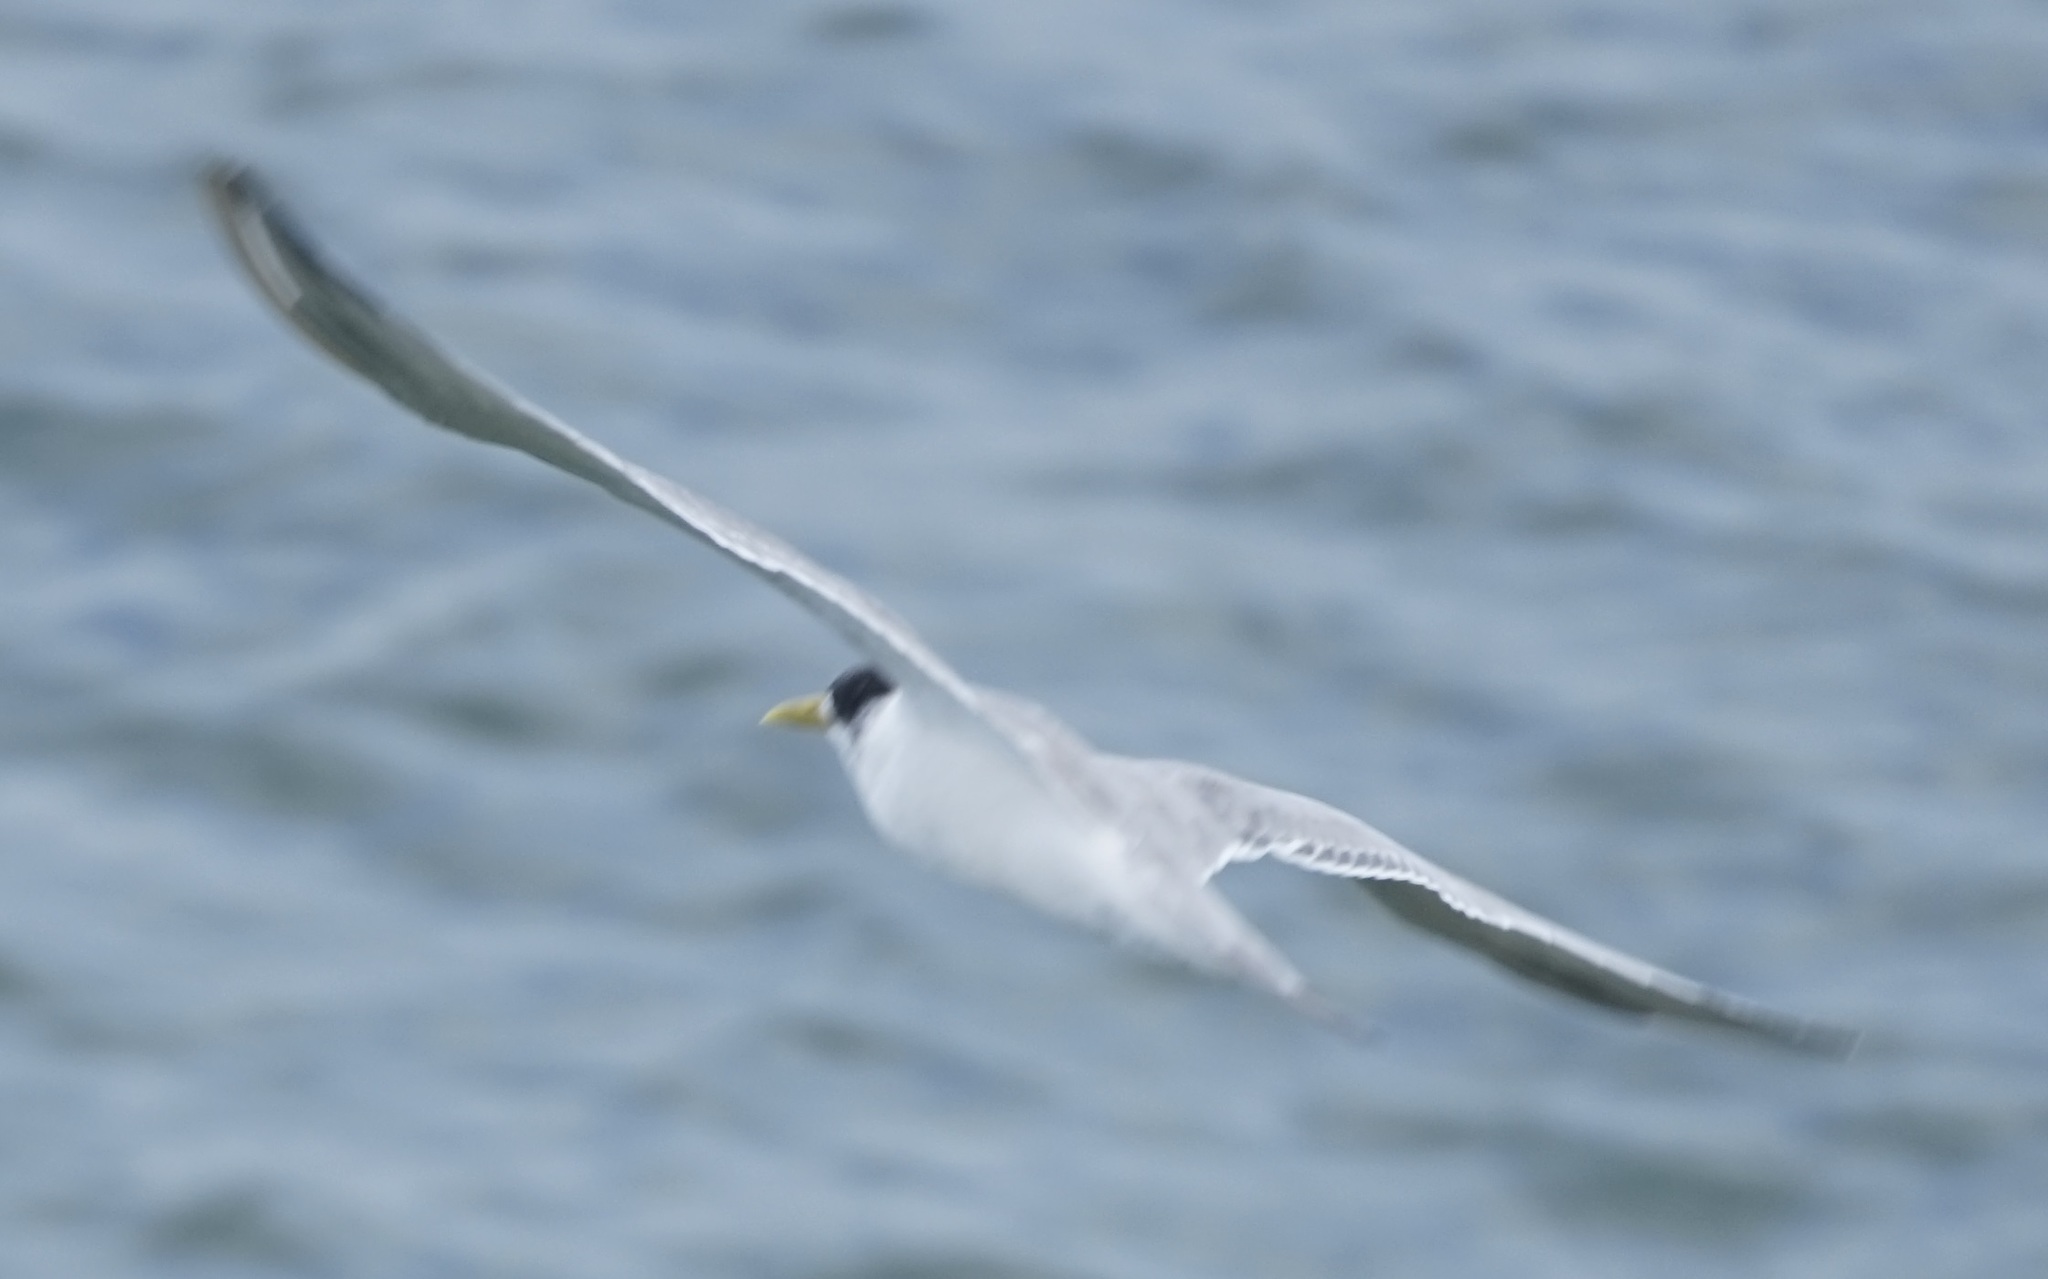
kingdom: Animalia
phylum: Chordata
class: Aves
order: Charadriiformes
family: Laridae
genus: Thalasseus
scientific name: Thalasseus bergii
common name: Greater crested tern
